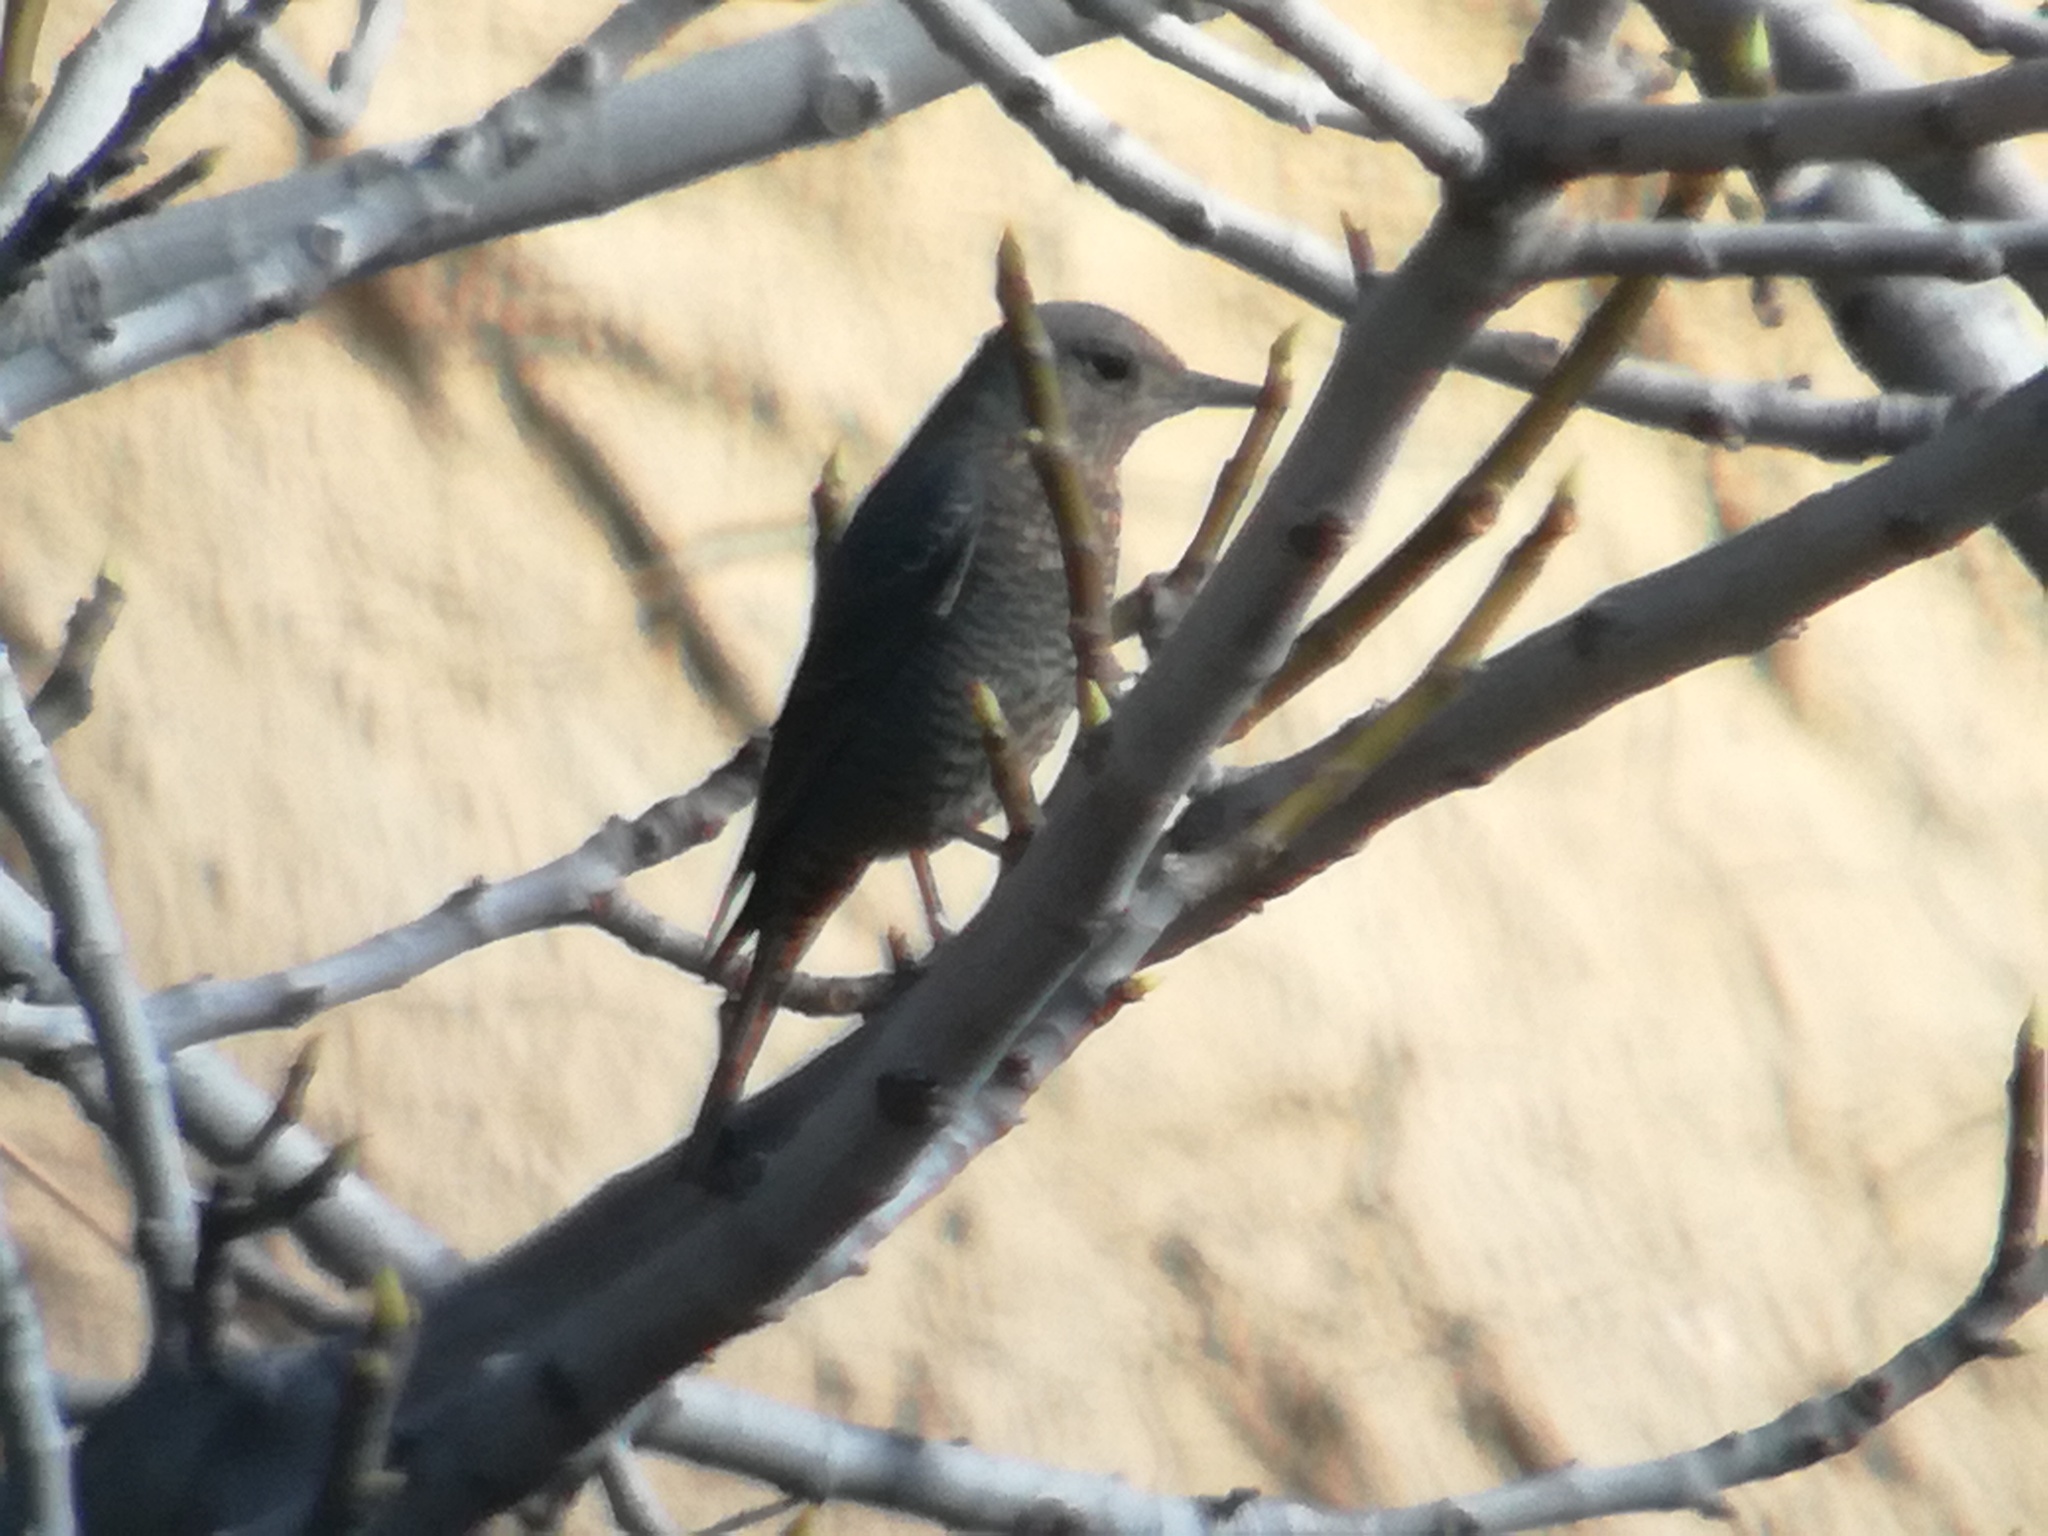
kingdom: Animalia
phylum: Chordata
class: Aves
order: Passeriformes
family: Muscicapidae
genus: Monticola
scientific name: Monticola solitarius
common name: Blue rock thrush
